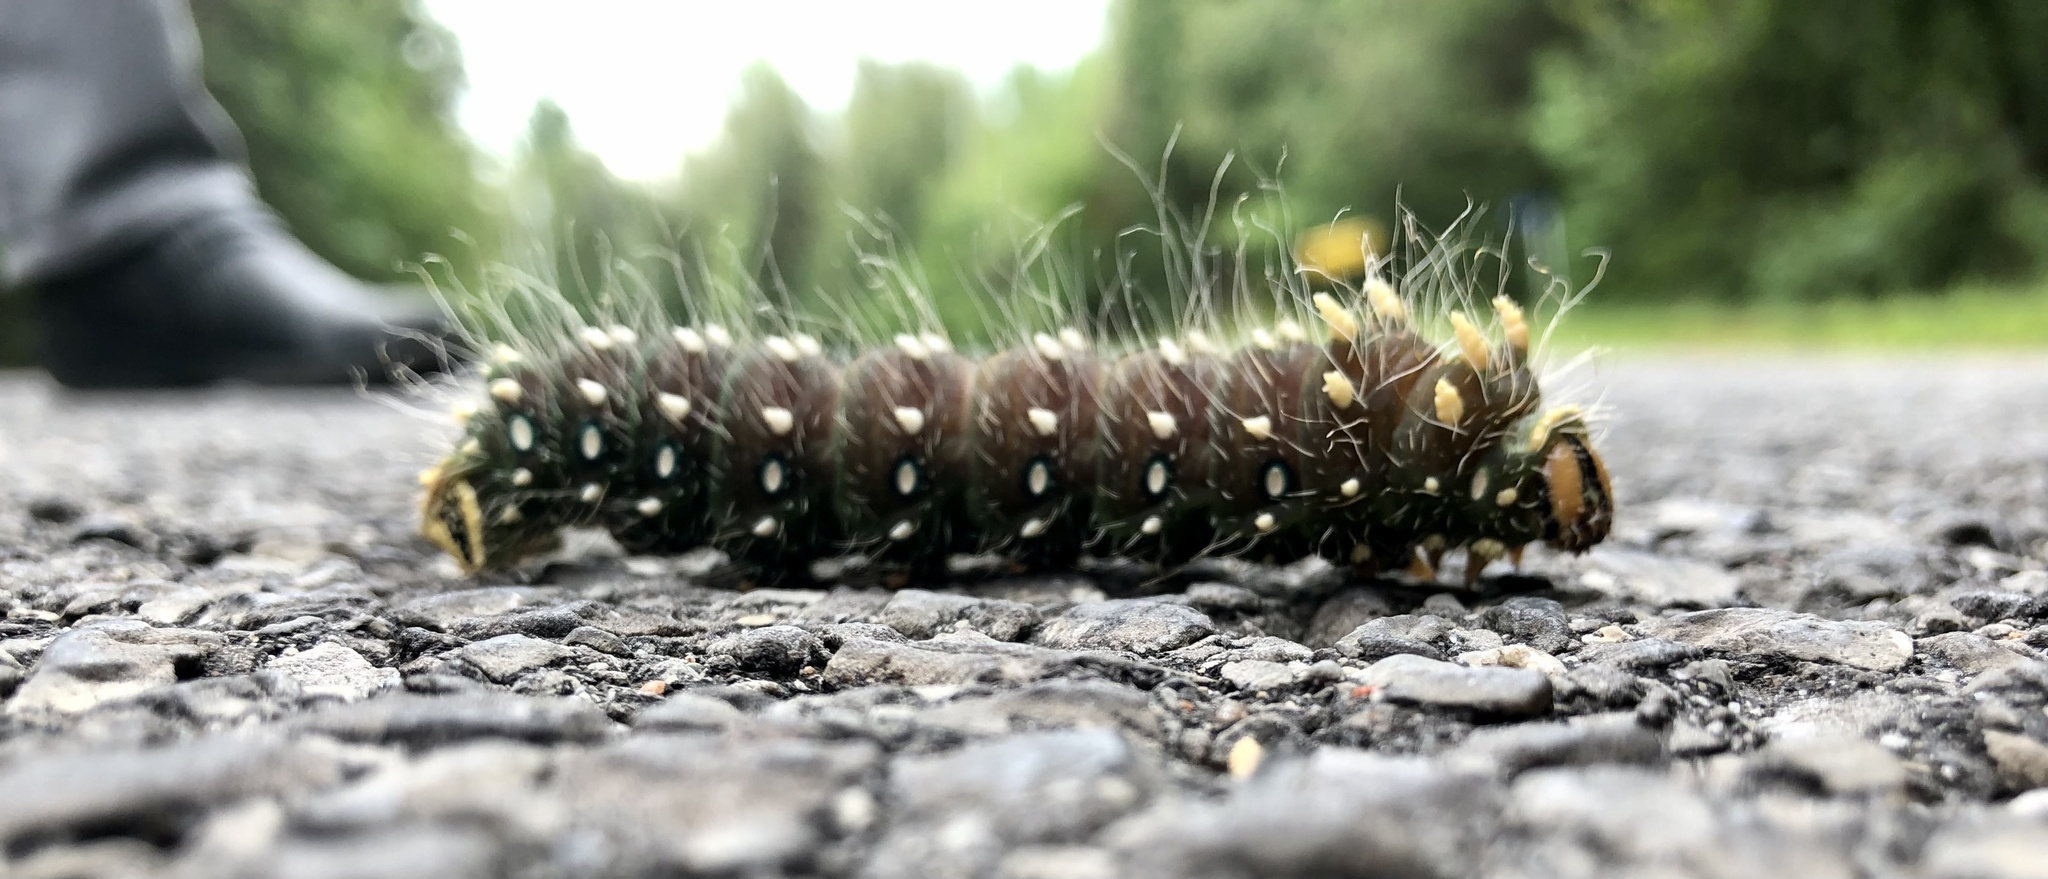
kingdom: Animalia
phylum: Arthropoda
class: Insecta
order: Lepidoptera
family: Saturniidae
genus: Eacles
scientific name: Eacles
